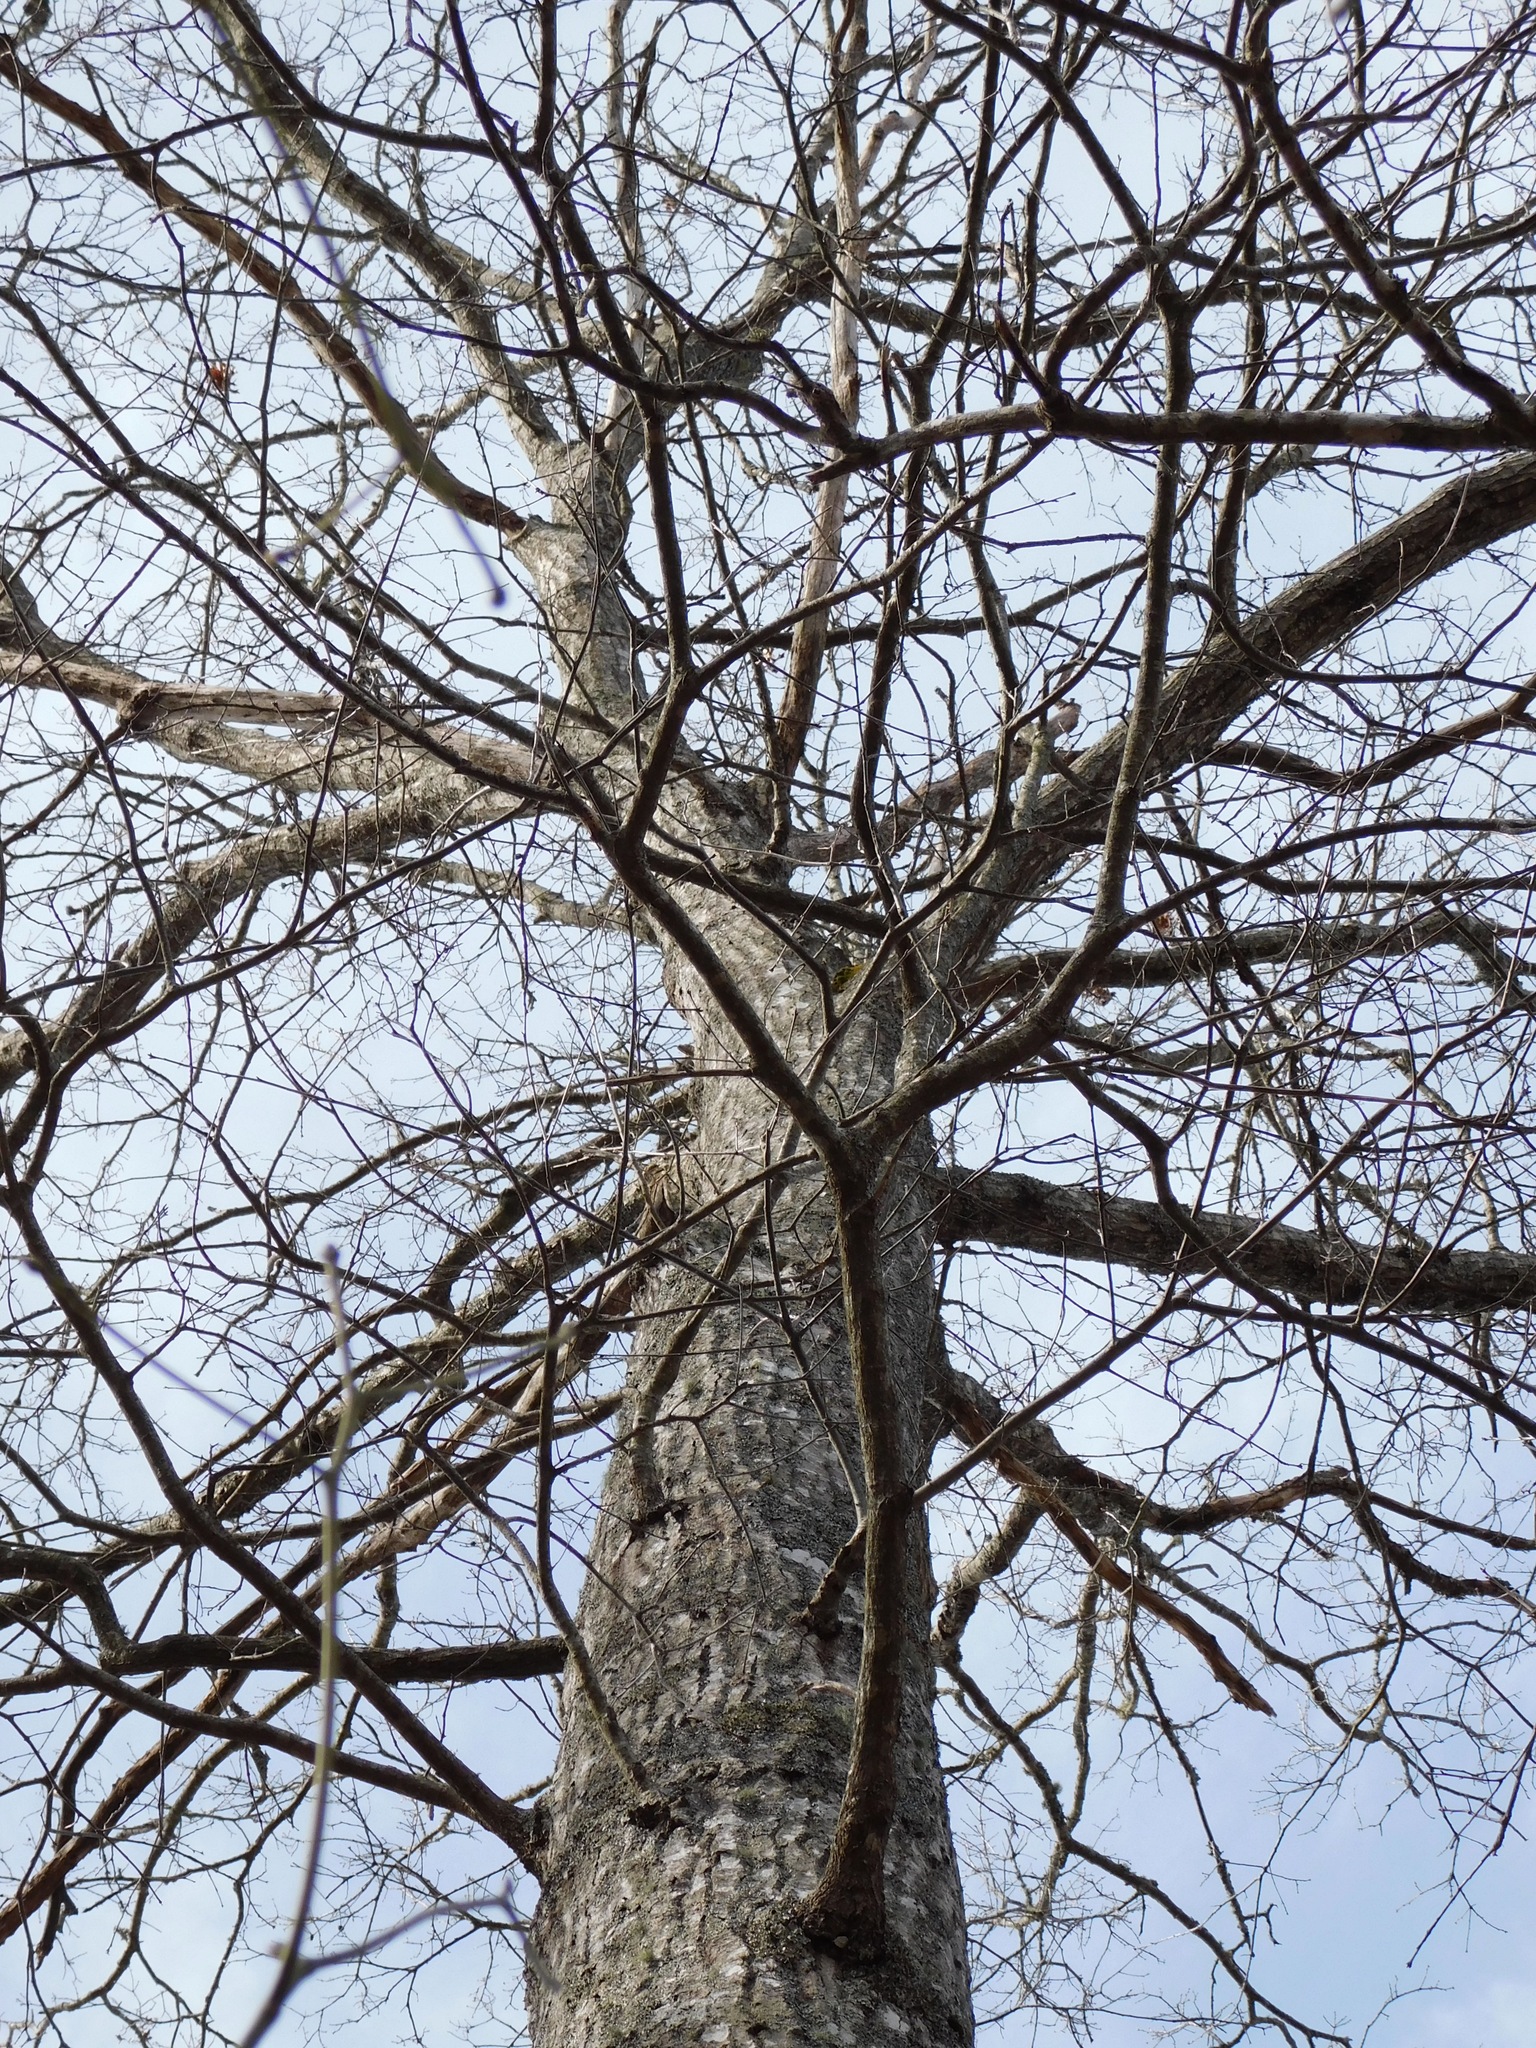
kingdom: Plantae
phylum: Tracheophyta
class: Magnoliopsida
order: Fagales
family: Fagaceae
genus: Quercus
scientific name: Quercus rubra
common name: Red oak
